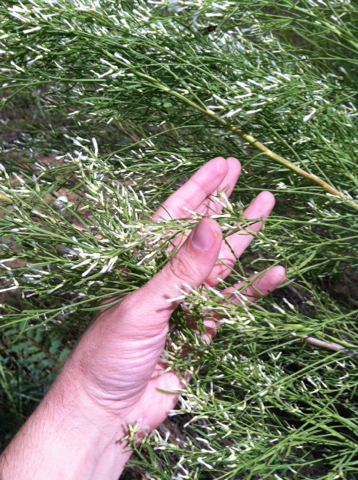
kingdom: Plantae
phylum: Tracheophyta
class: Magnoliopsida
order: Asterales
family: Asteraceae
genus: Baccharis
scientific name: Baccharis neglecta
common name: Roosevelt-weed
